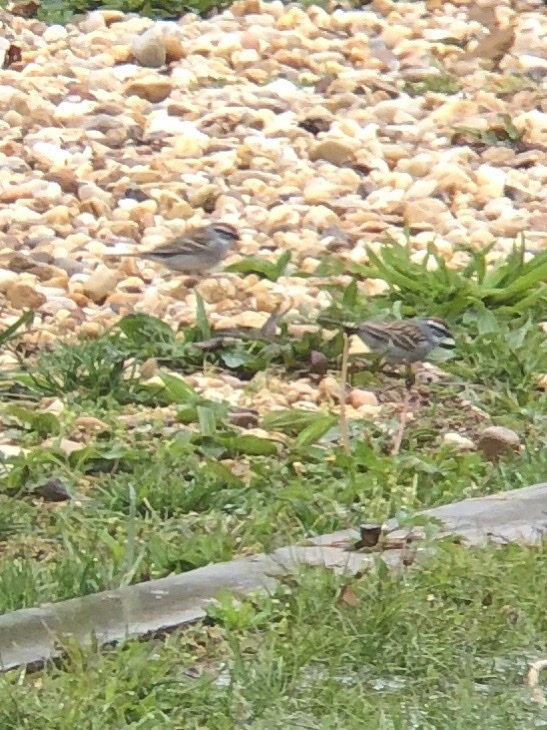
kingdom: Animalia
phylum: Chordata
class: Aves
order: Passeriformes
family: Passerellidae
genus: Spizella
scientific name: Spizella passerina
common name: Chipping sparrow
